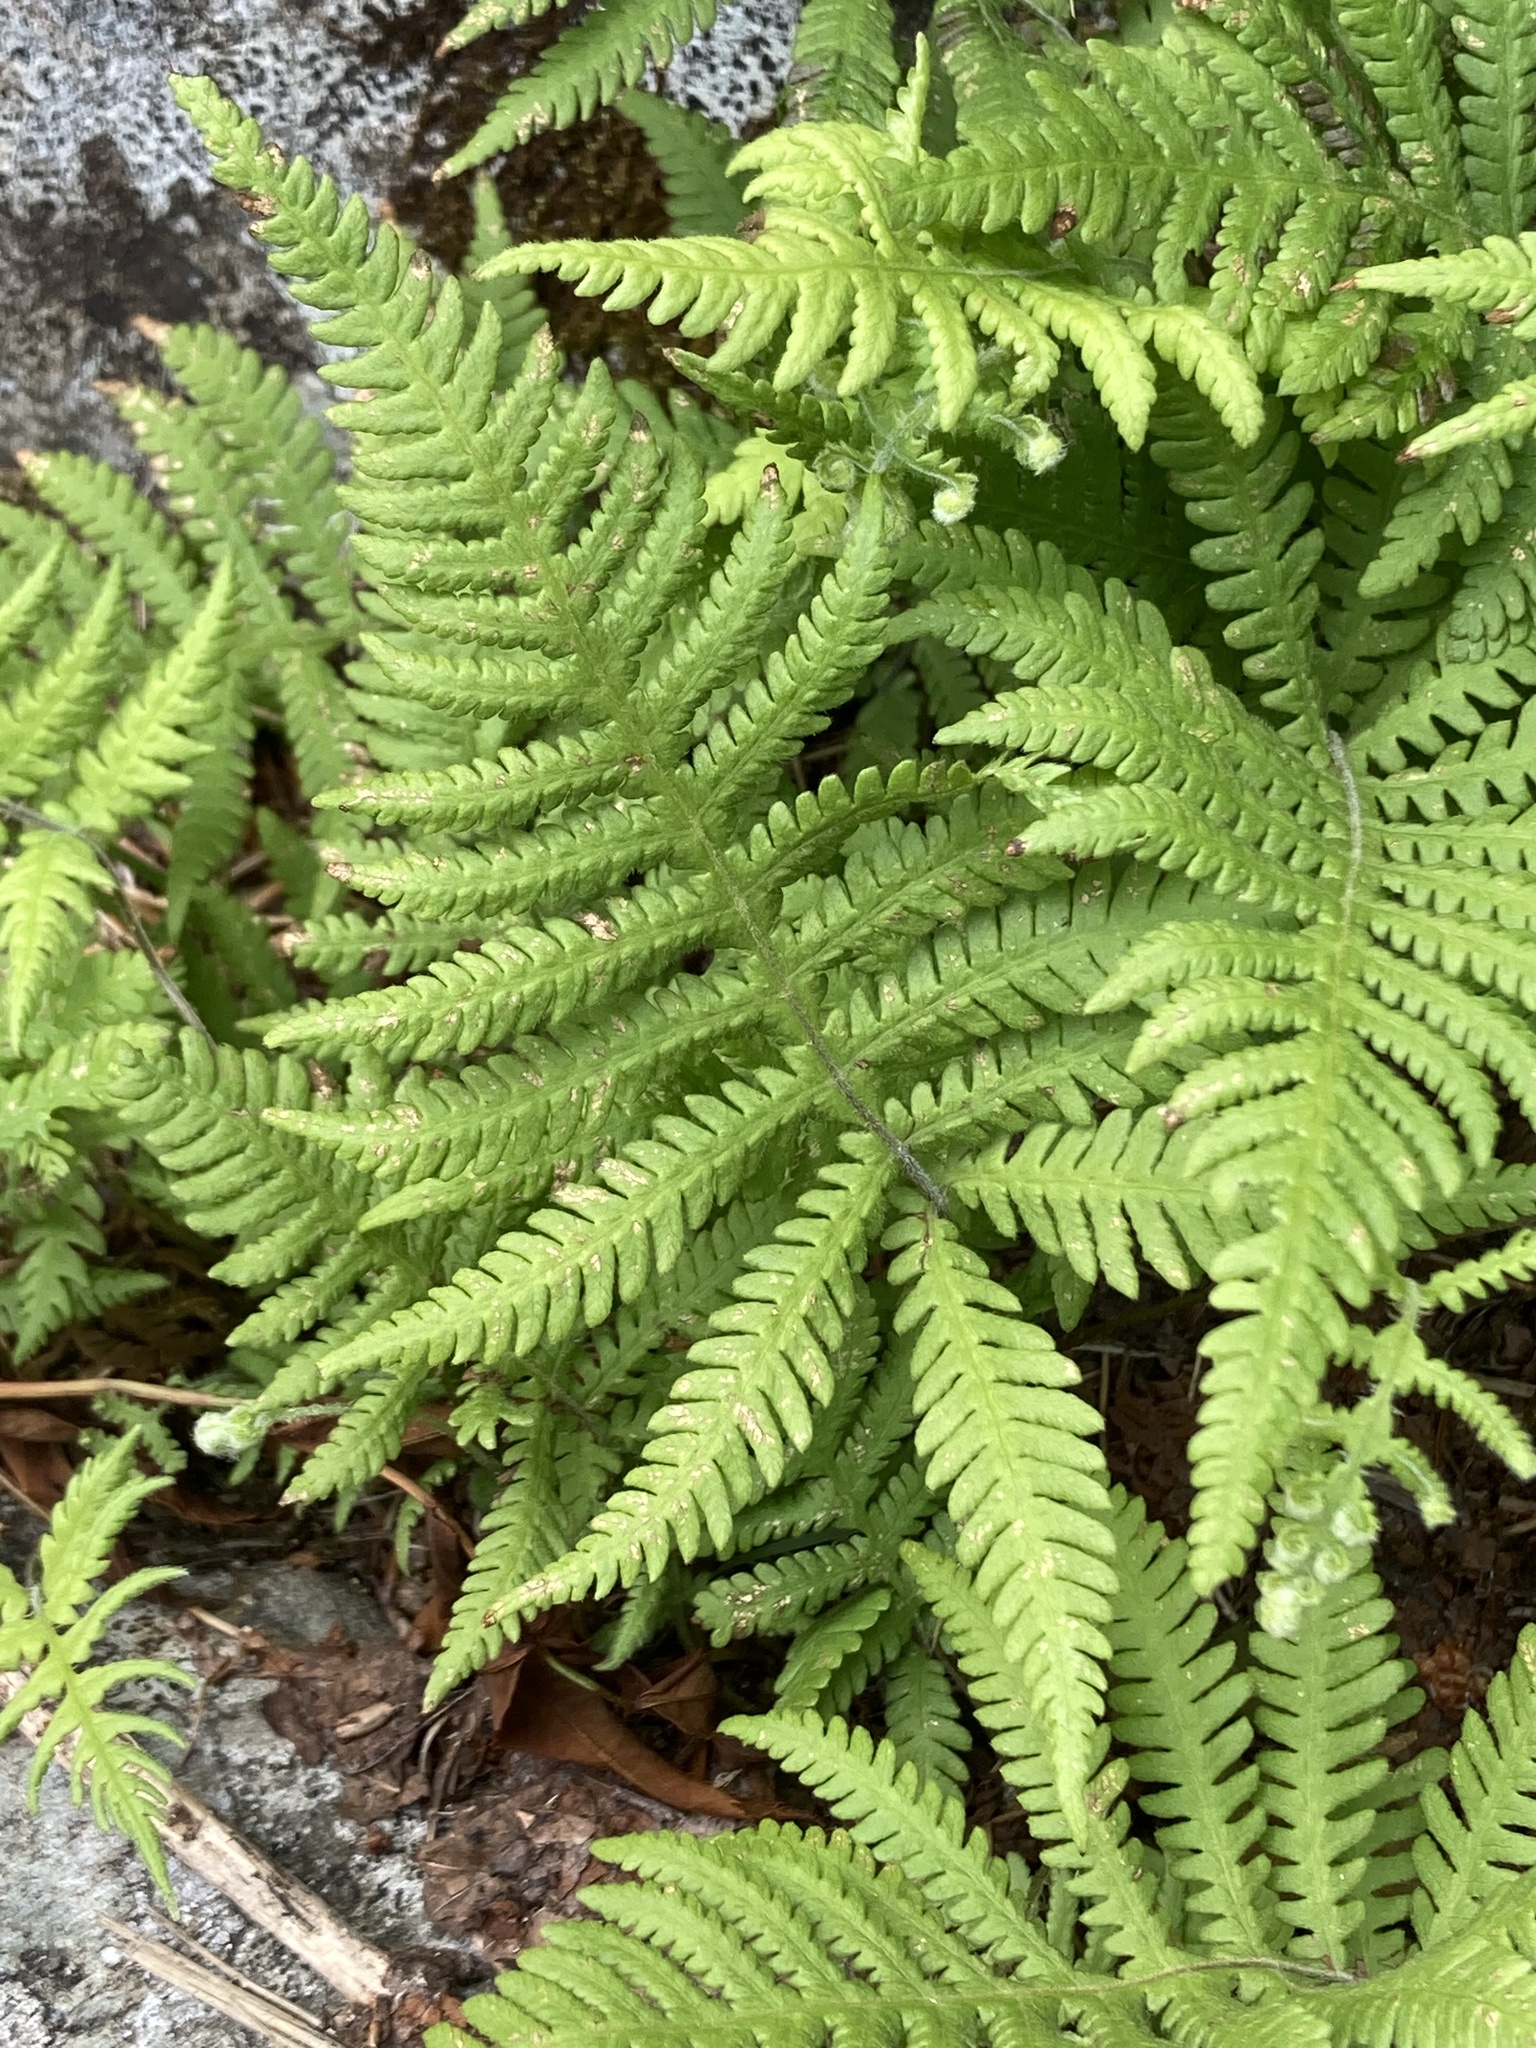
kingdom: Plantae
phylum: Tracheophyta
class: Polypodiopsida
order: Polypodiales
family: Thelypteridaceae
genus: Phegopteris
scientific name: Phegopteris connectilis
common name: Beech fern
